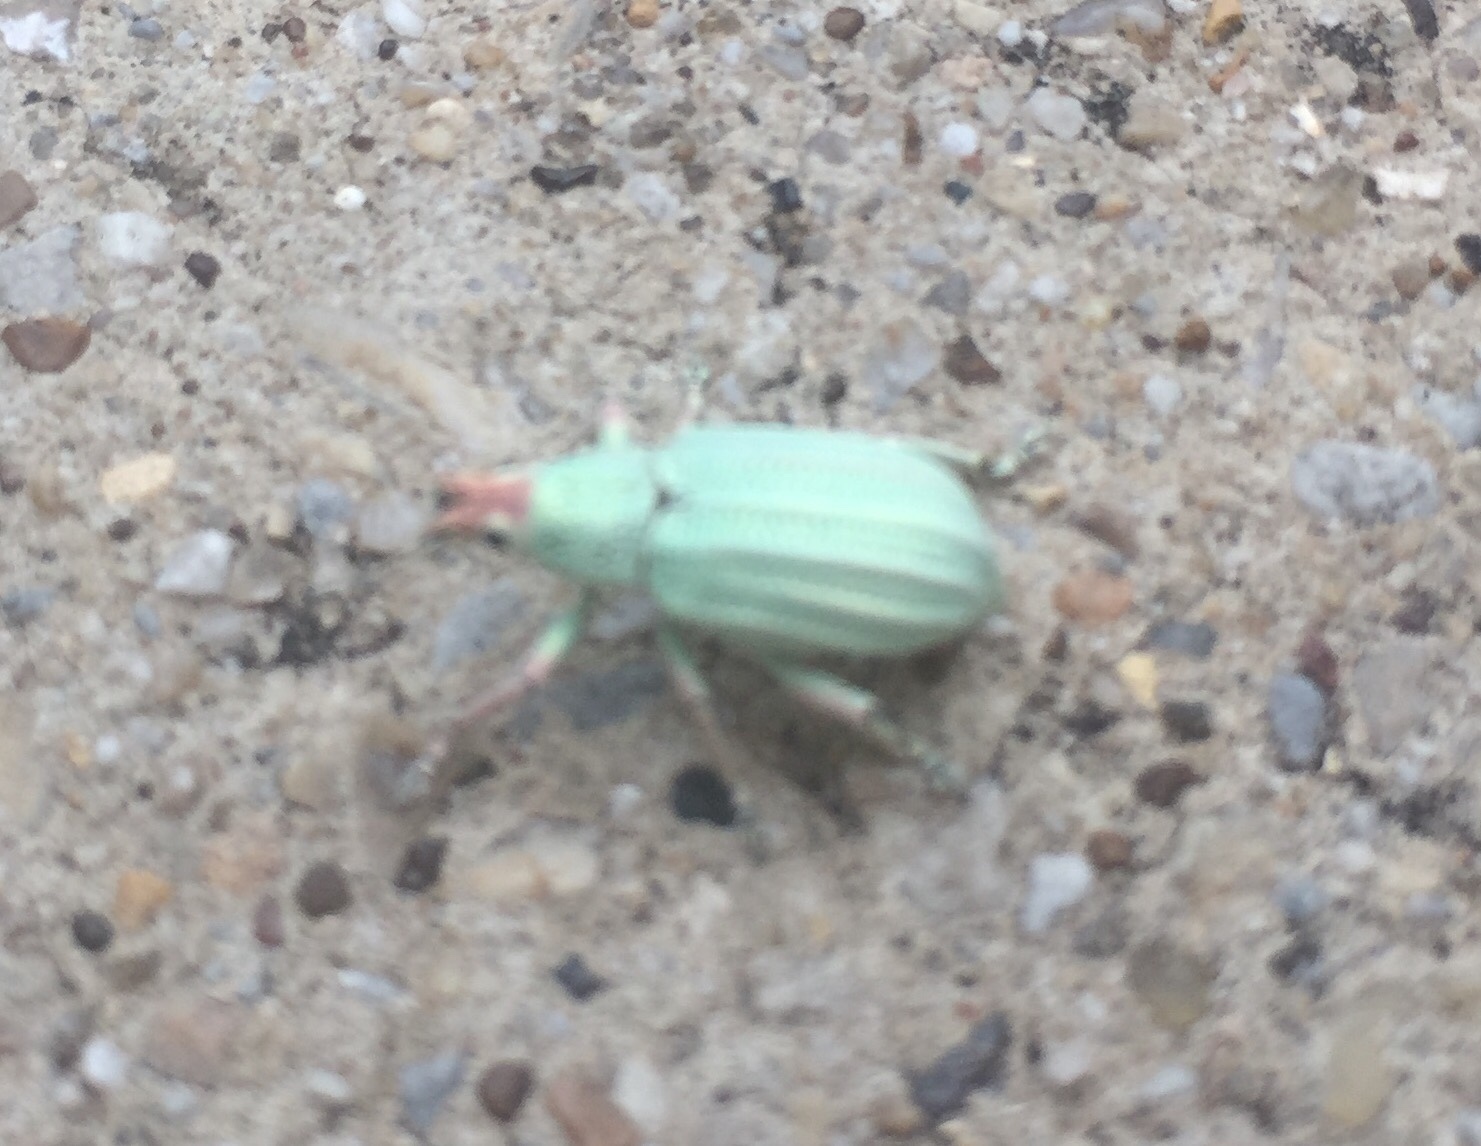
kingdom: Animalia
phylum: Arthropoda
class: Insecta
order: Coleoptera
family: Curculionidae
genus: Compsus
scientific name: Compsus auricephalus
